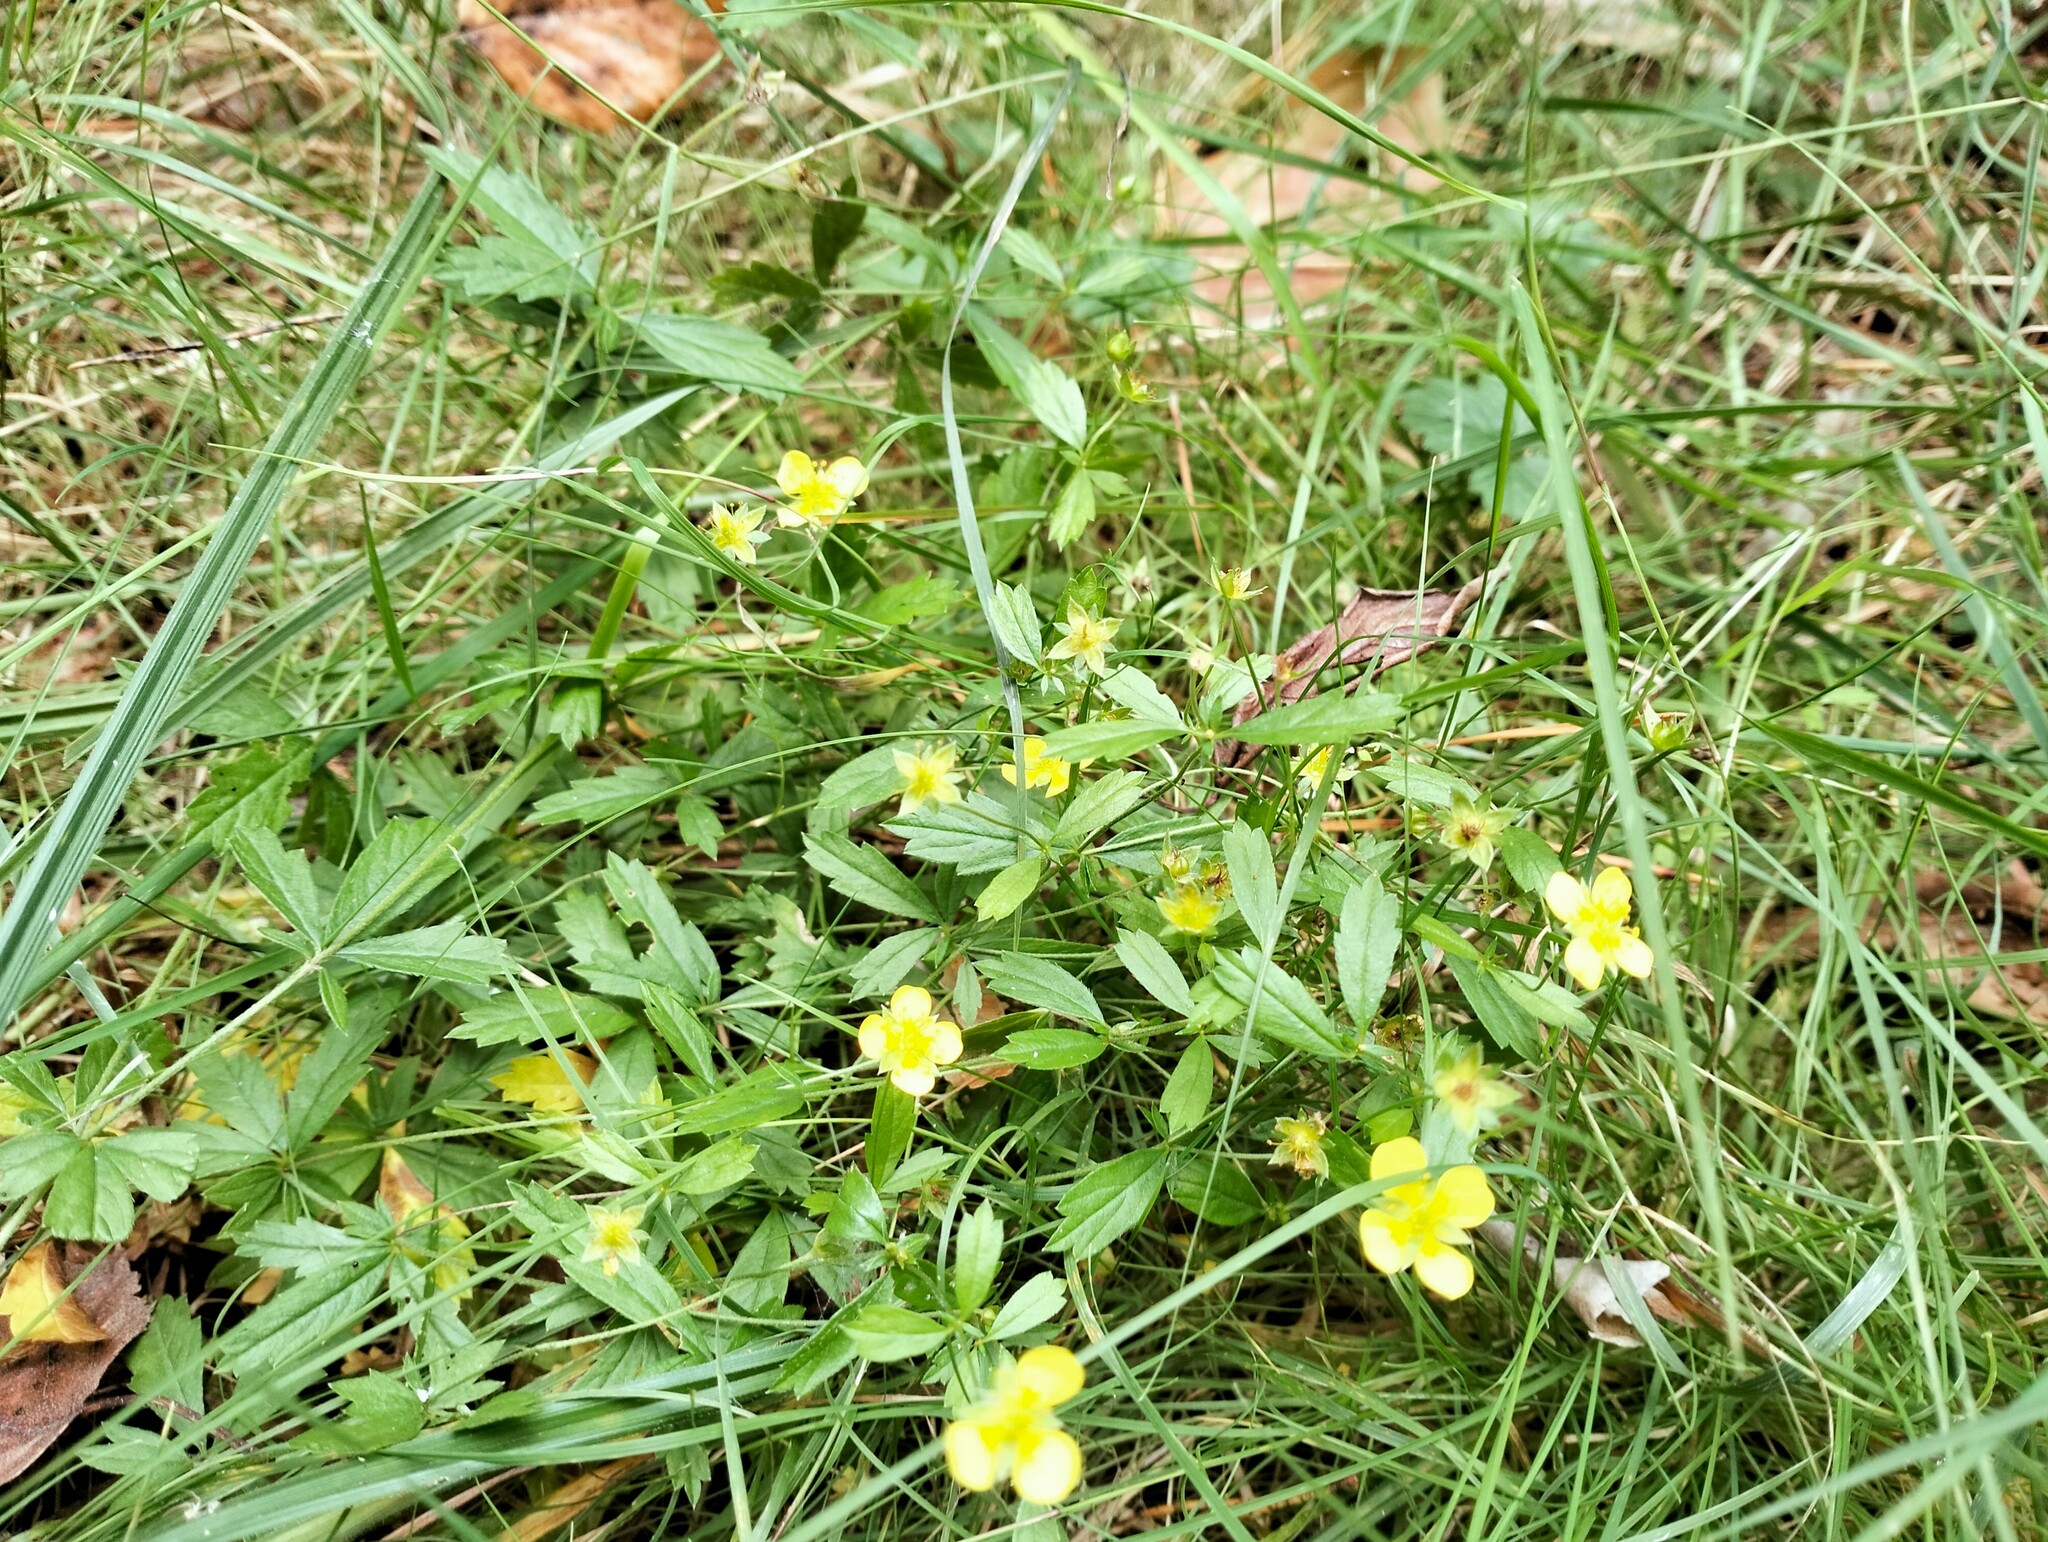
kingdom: Plantae
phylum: Tracheophyta
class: Magnoliopsida
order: Rosales
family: Rosaceae
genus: Potentilla
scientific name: Potentilla erecta
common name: Tormentil
